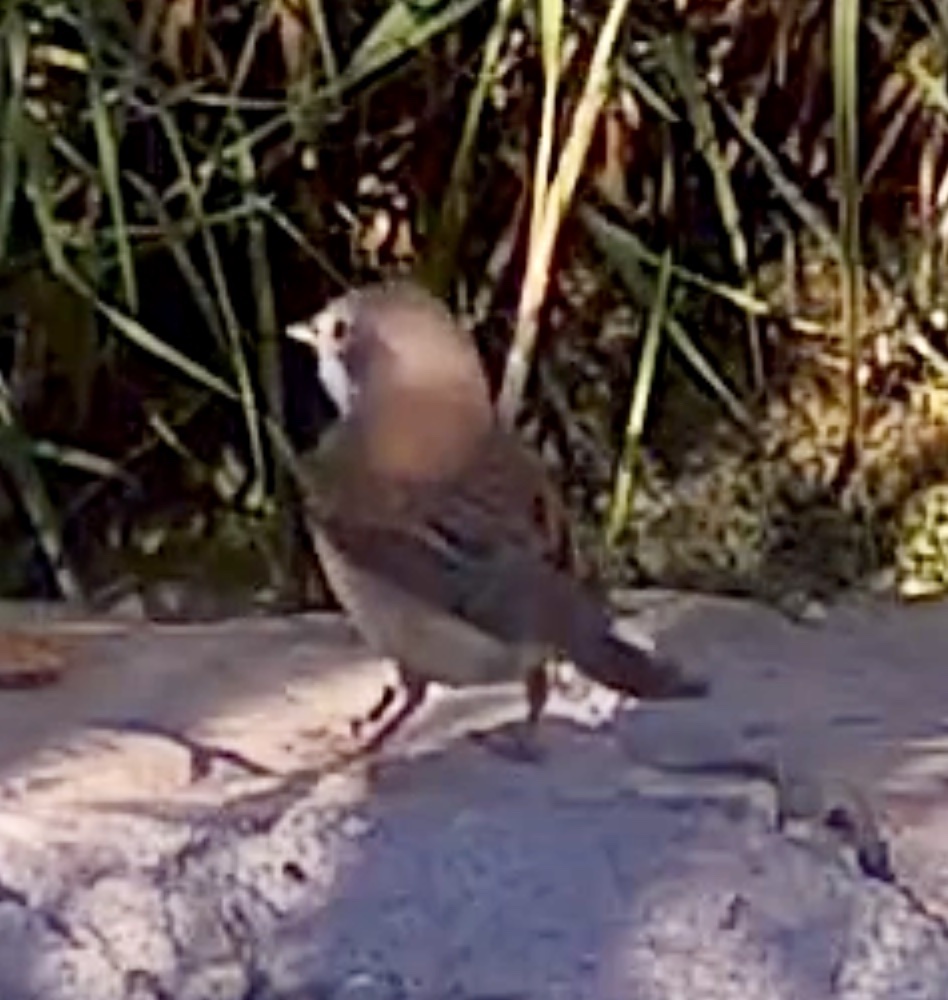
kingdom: Animalia
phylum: Chordata
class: Aves
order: Passeriformes
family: Sylviidae
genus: Sylvia
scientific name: Sylvia communis
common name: Common whitethroat
